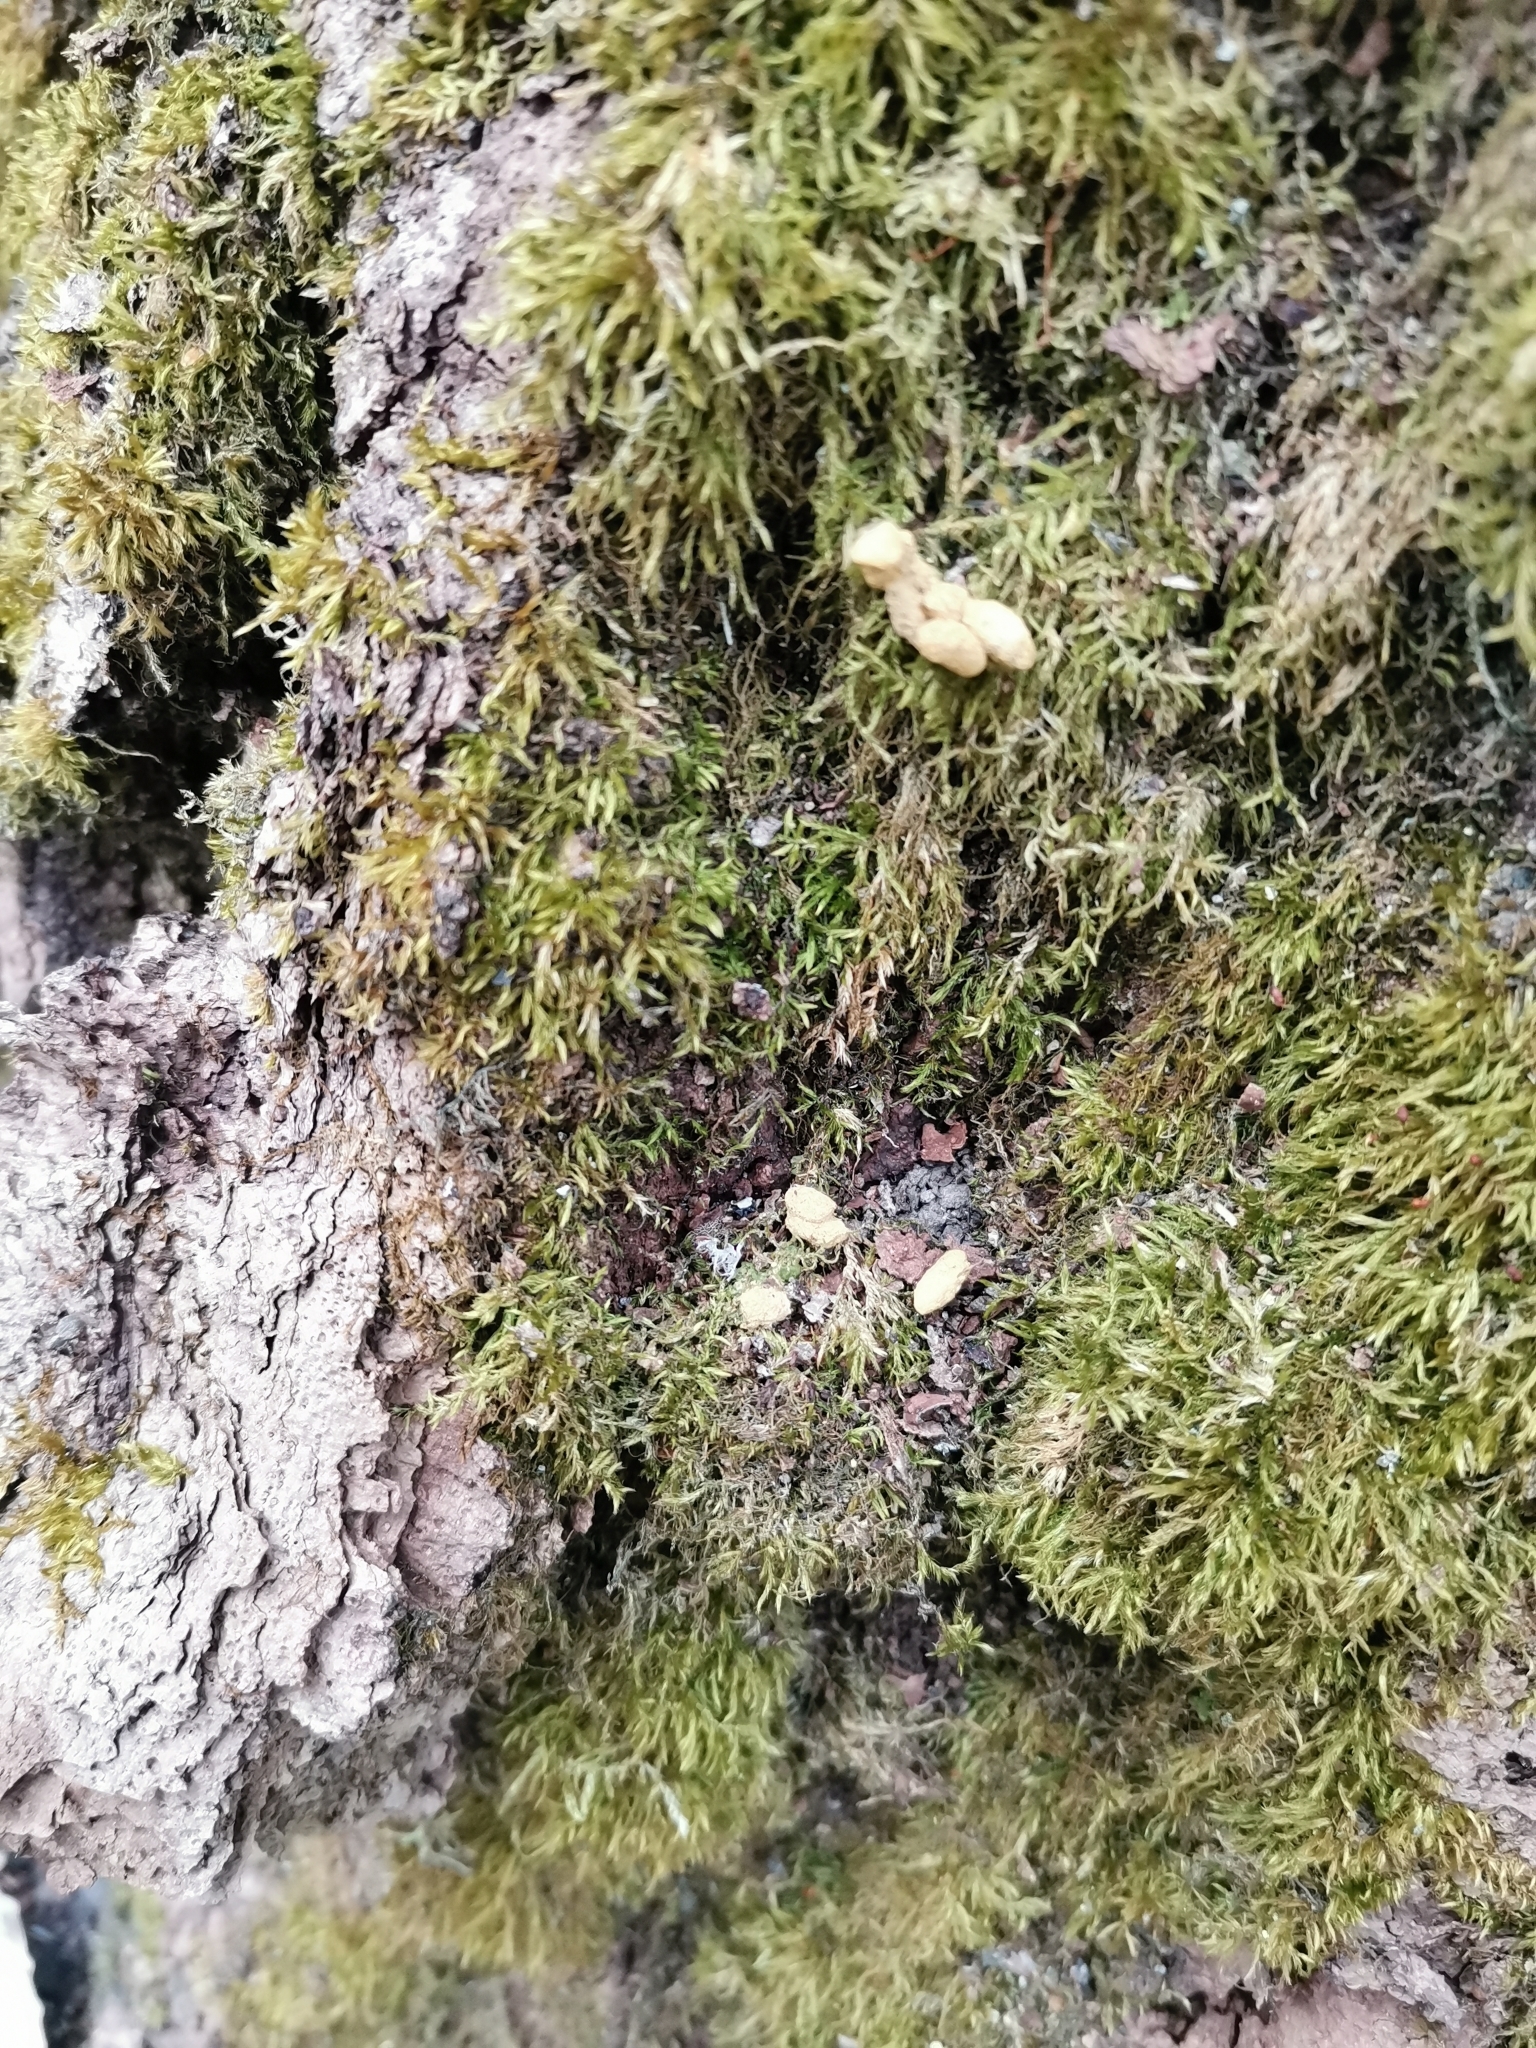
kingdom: Animalia
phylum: Chordata
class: Mammalia
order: Rodentia
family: Sciuridae
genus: Pteromys
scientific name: Pteromys volans
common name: Siberian flying squirrel
